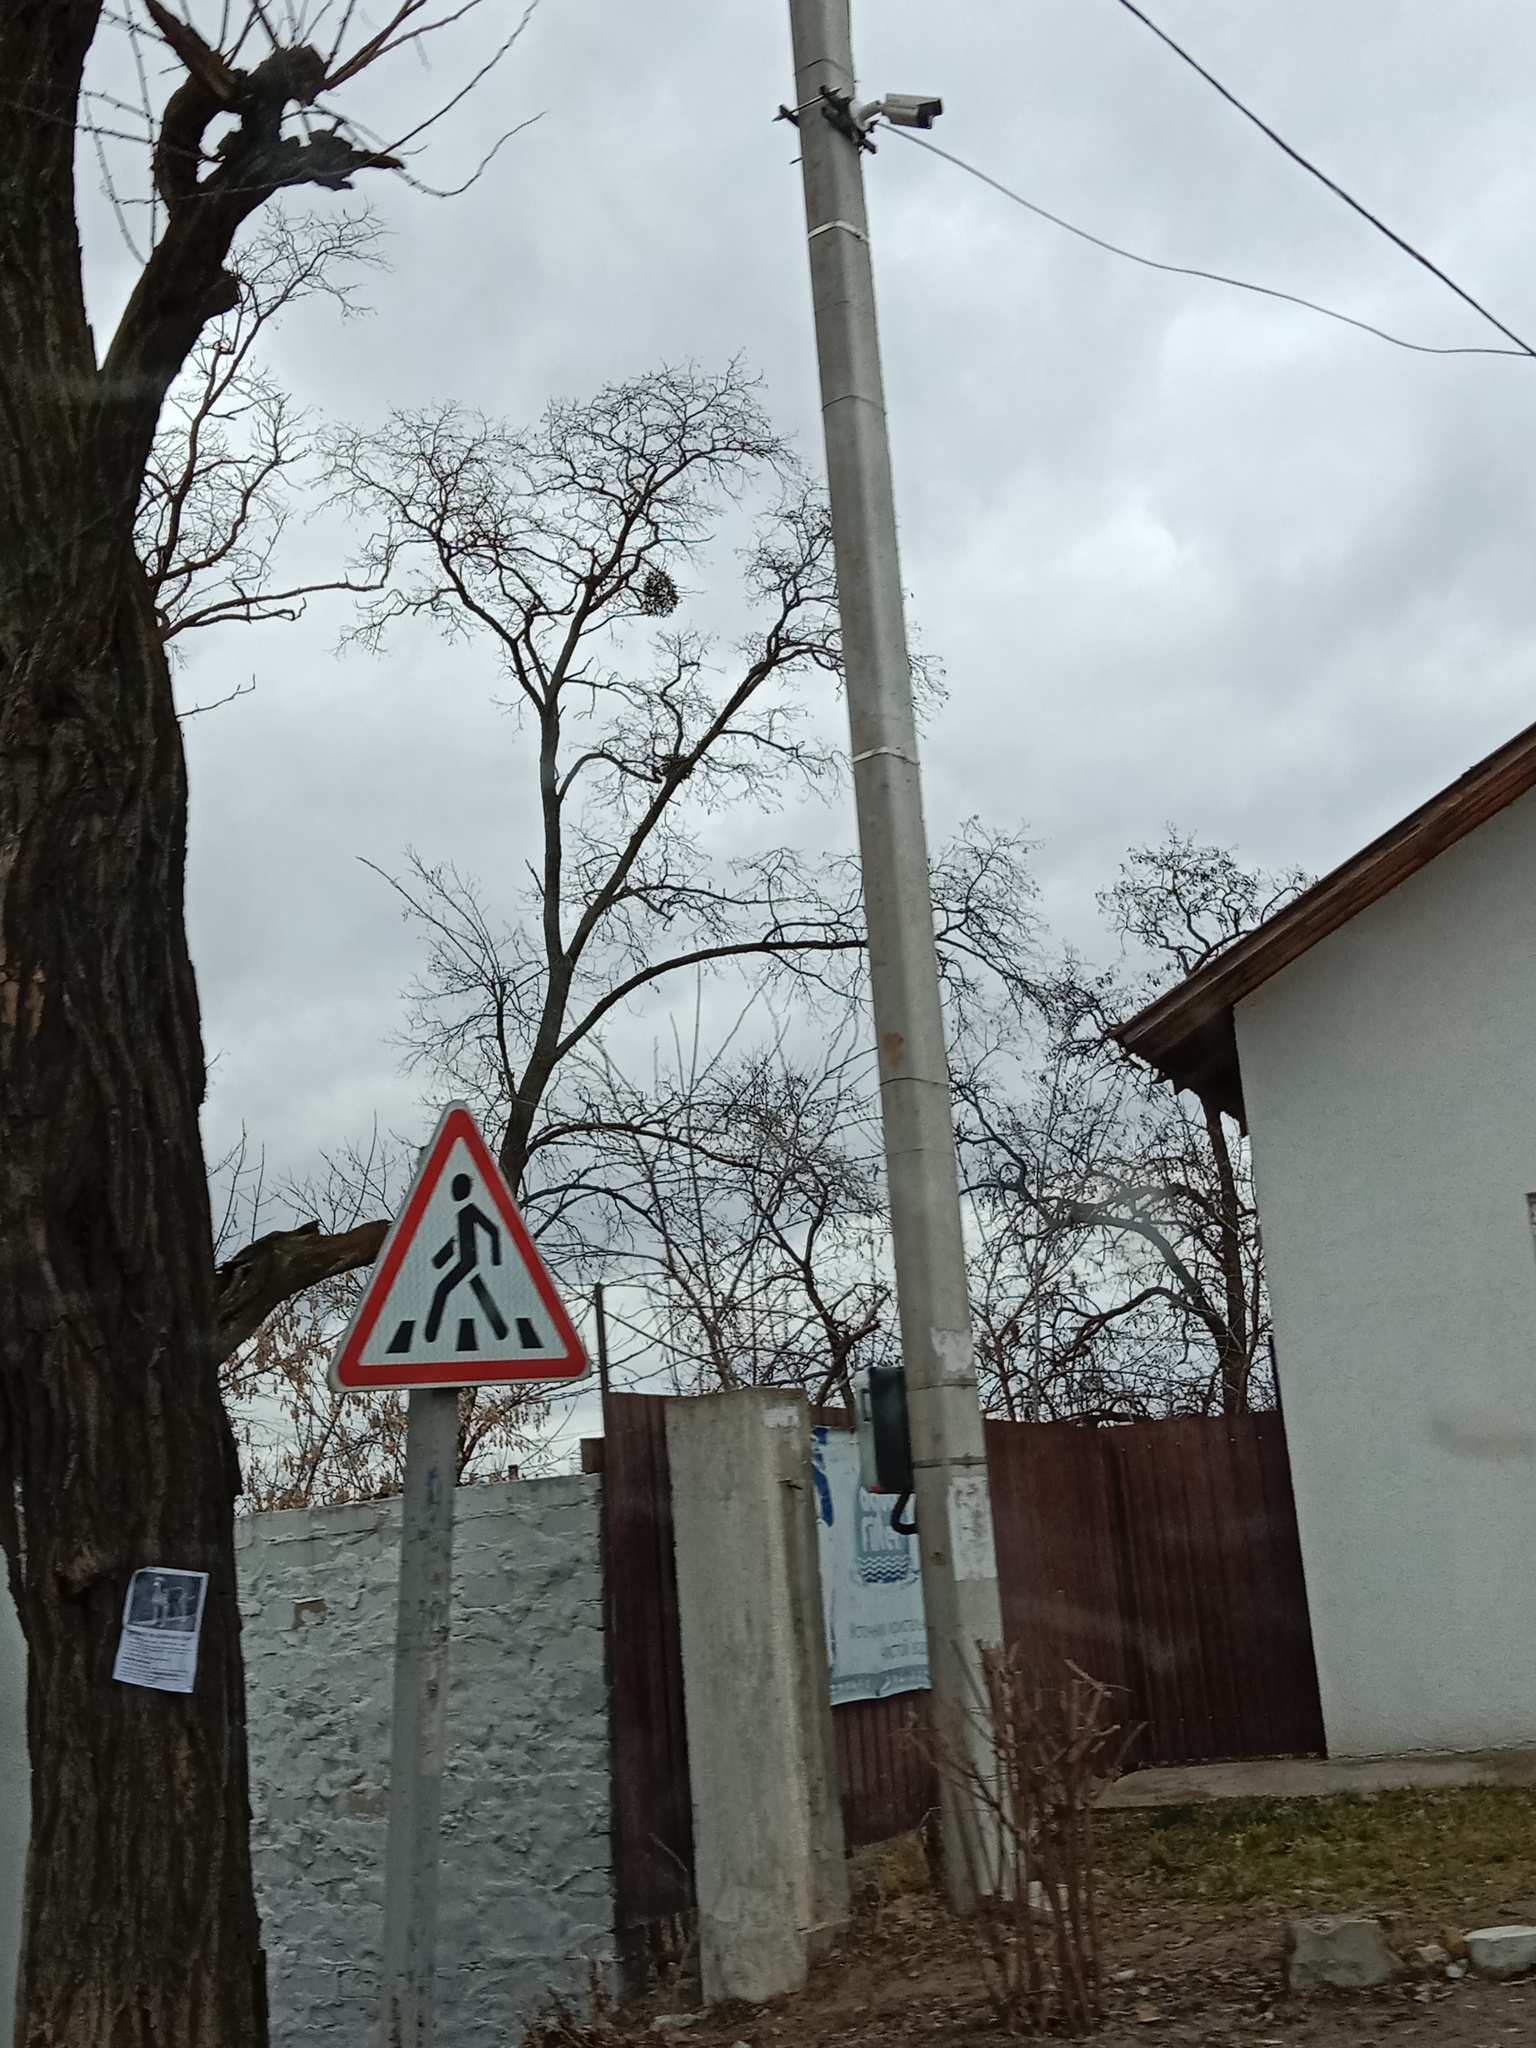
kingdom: Plantae
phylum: Tracheophyta
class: Magnoliopsida
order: Santalales
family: Viscaceae
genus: Viscum
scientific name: Viscum album
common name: Mistletoe
